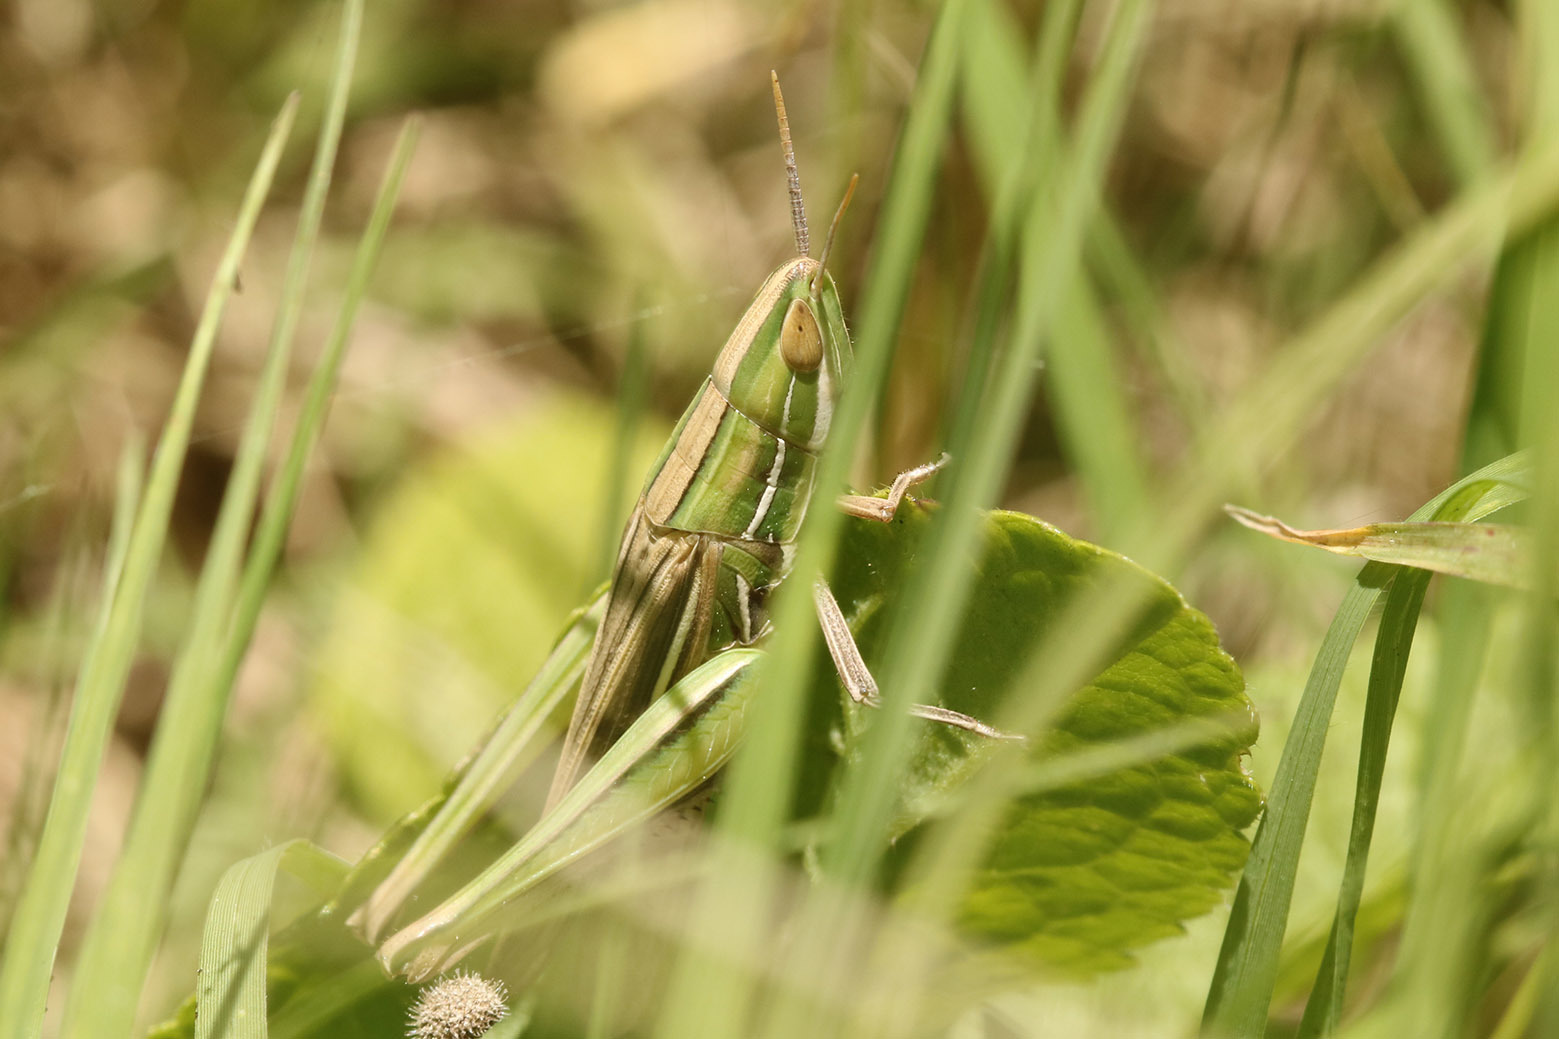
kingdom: Animalia
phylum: Arthropoda
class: Insecta
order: Orthoptera
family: Acrididae
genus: Sinipta
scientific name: Sinipta dalmani
